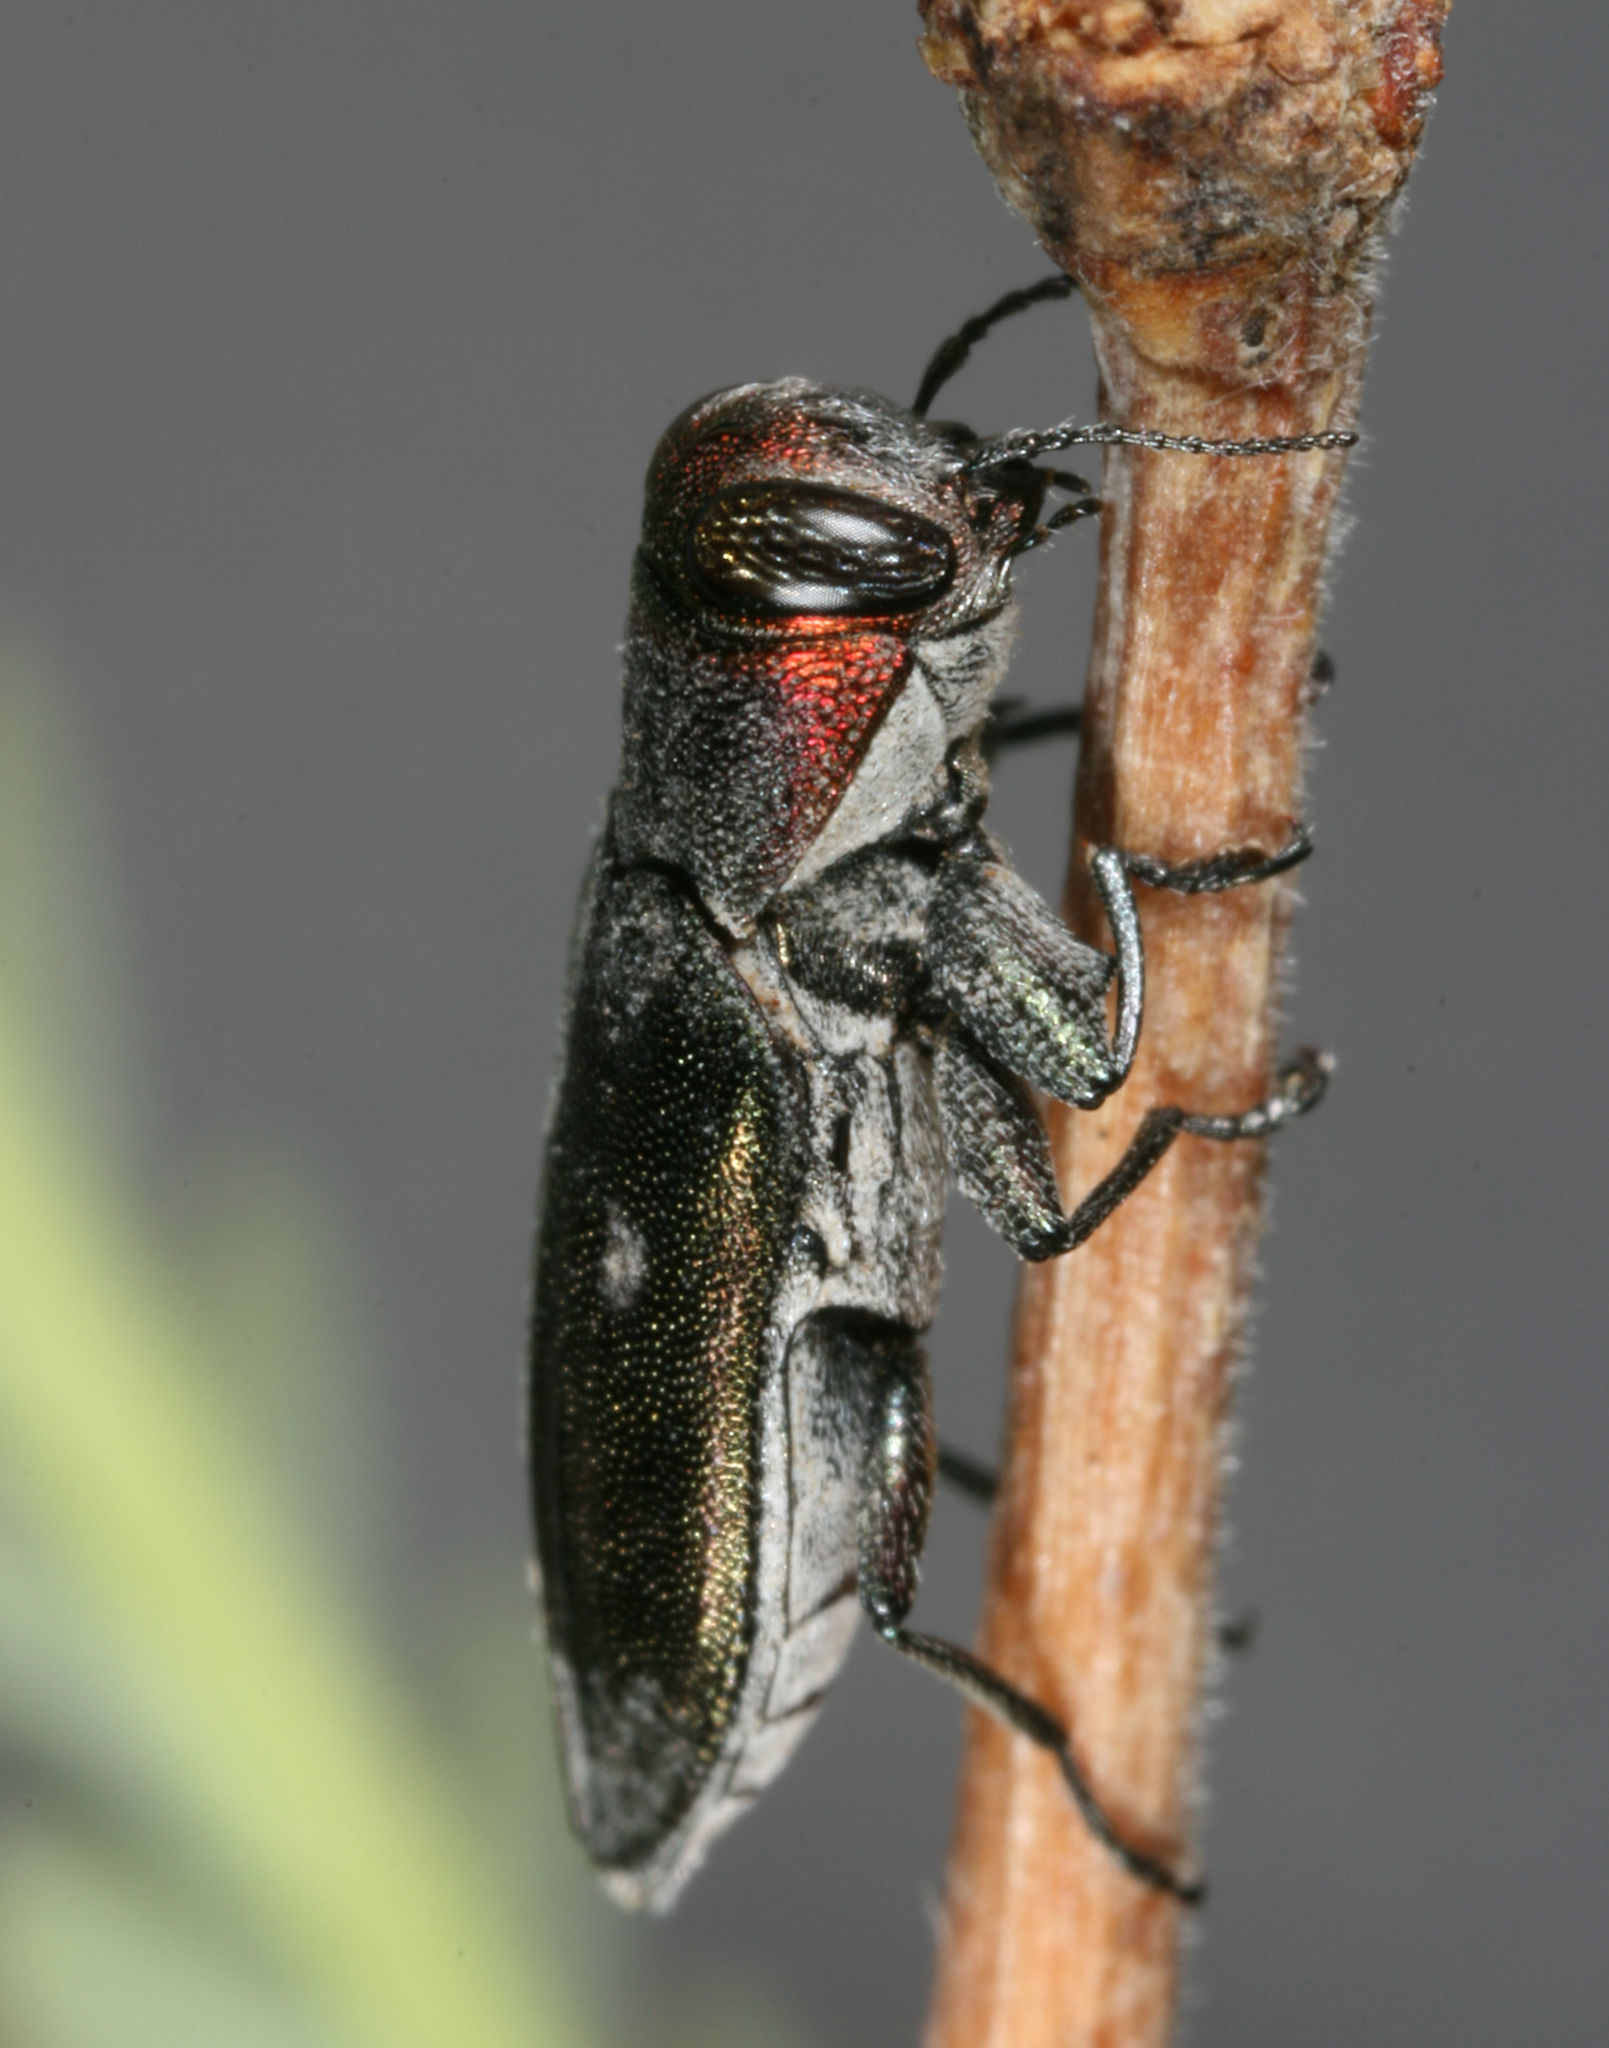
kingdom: Animalia
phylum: Arthropoda
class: Insecta
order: Coleoptera
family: Buprestidae
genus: Chrysobothris
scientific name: Chrysobothris carmelita
